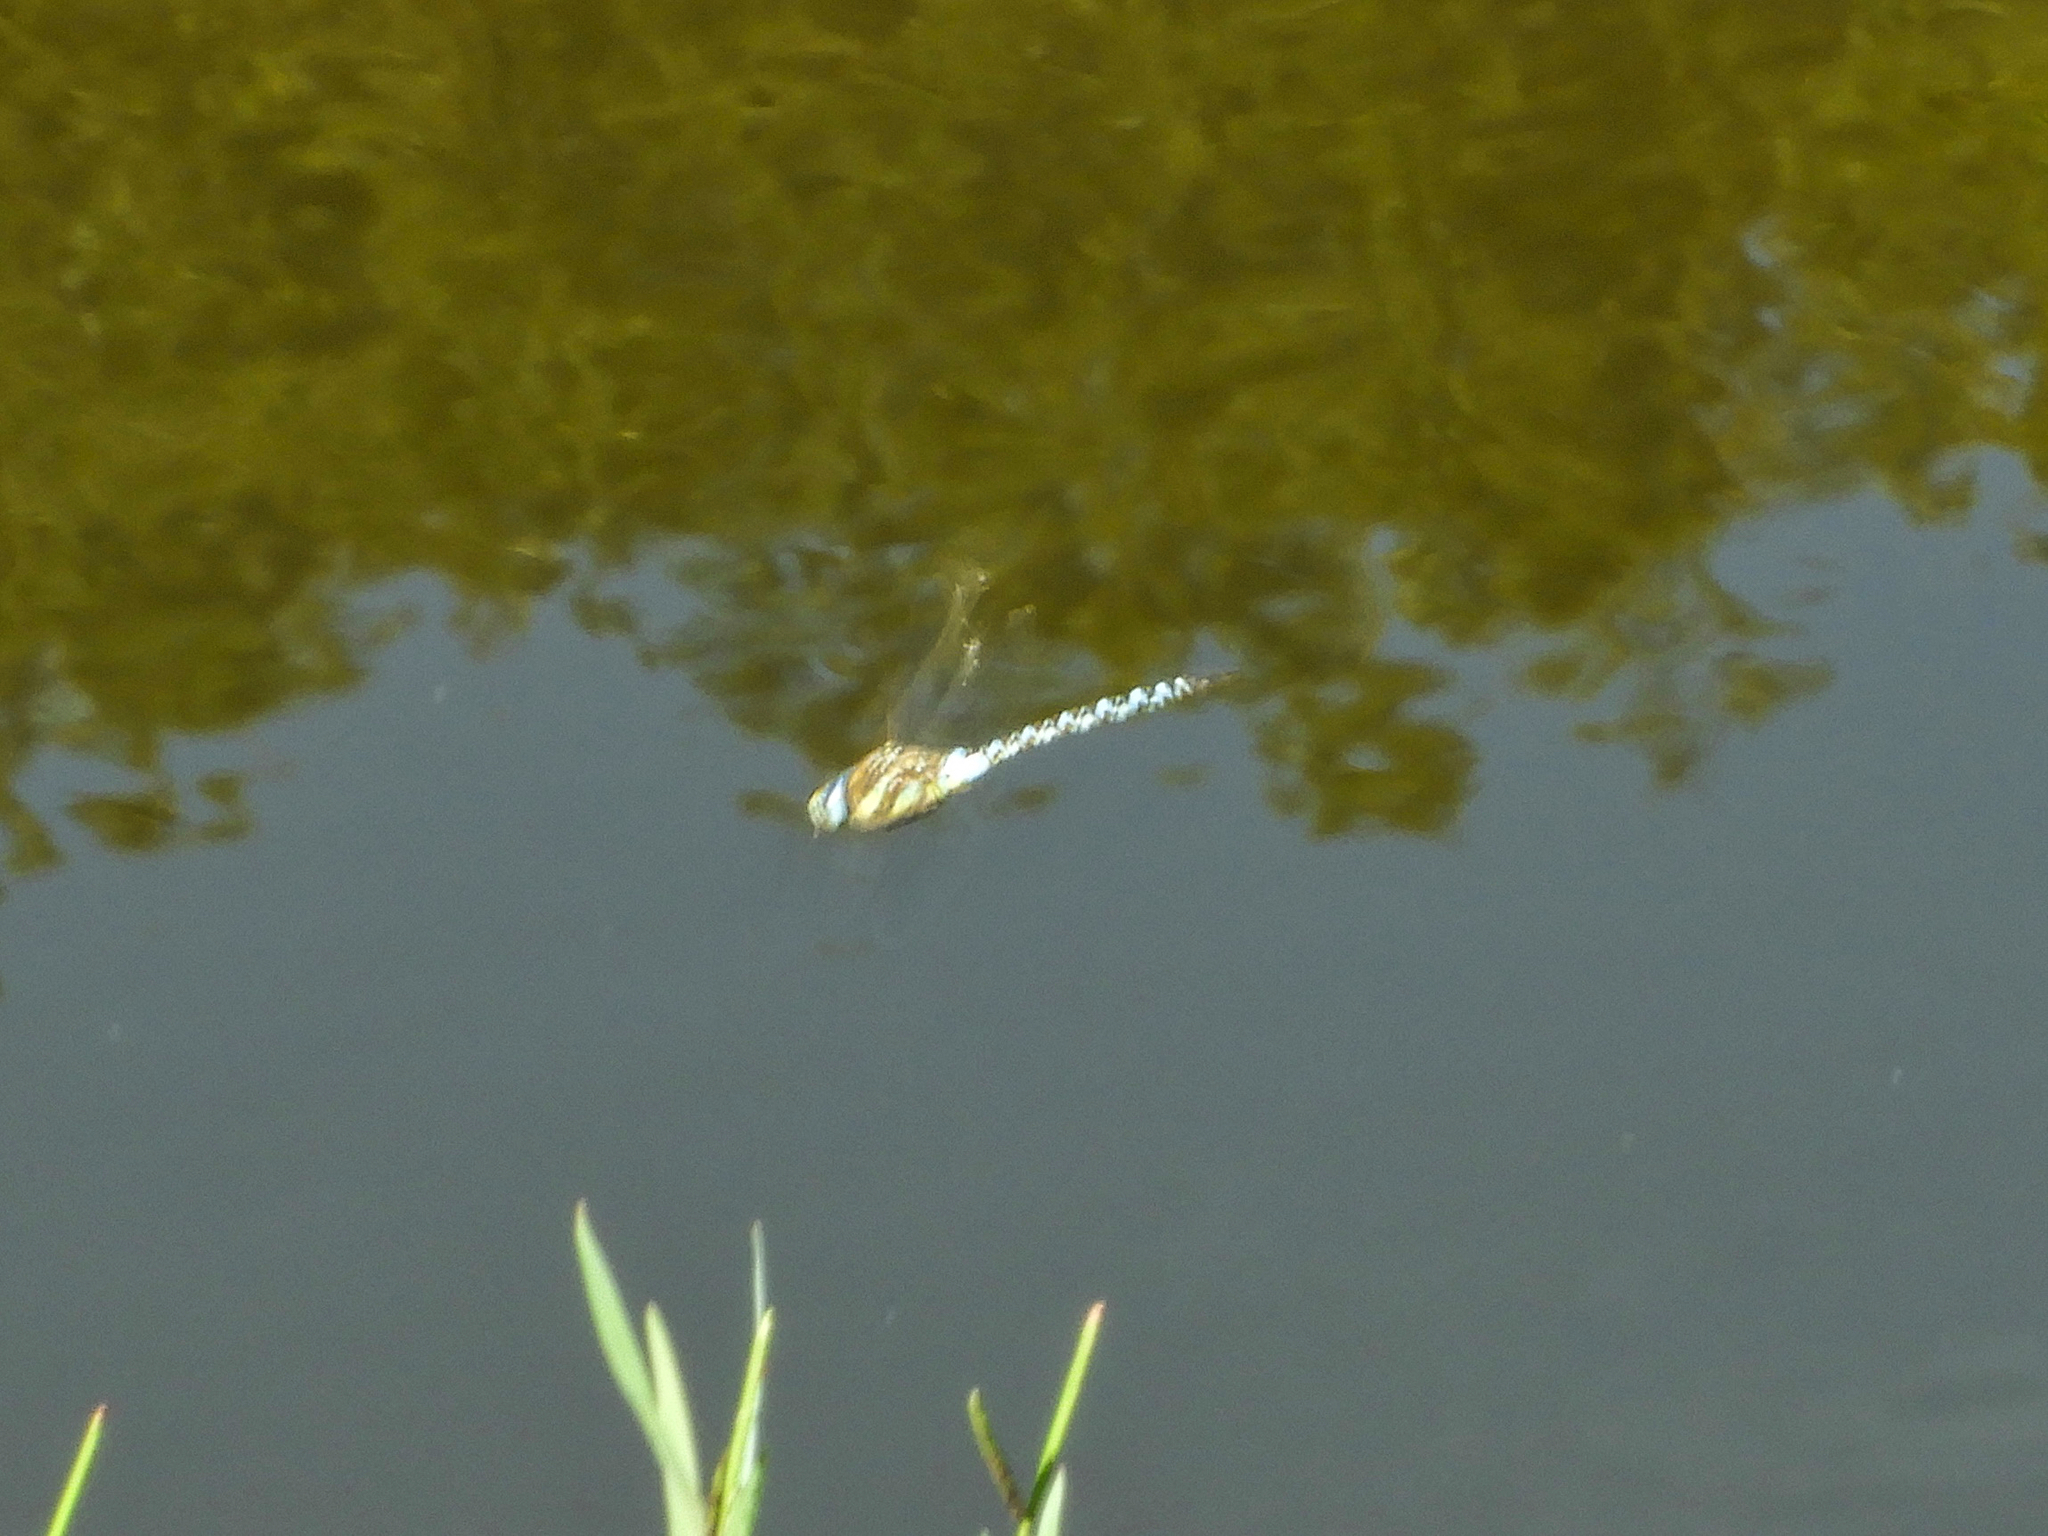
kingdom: Animalia
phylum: Arthropoda
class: Insecta
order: Odonata
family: Aeshnidae
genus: Aeshna
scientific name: Aeshna mixta
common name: Migrant hawker
